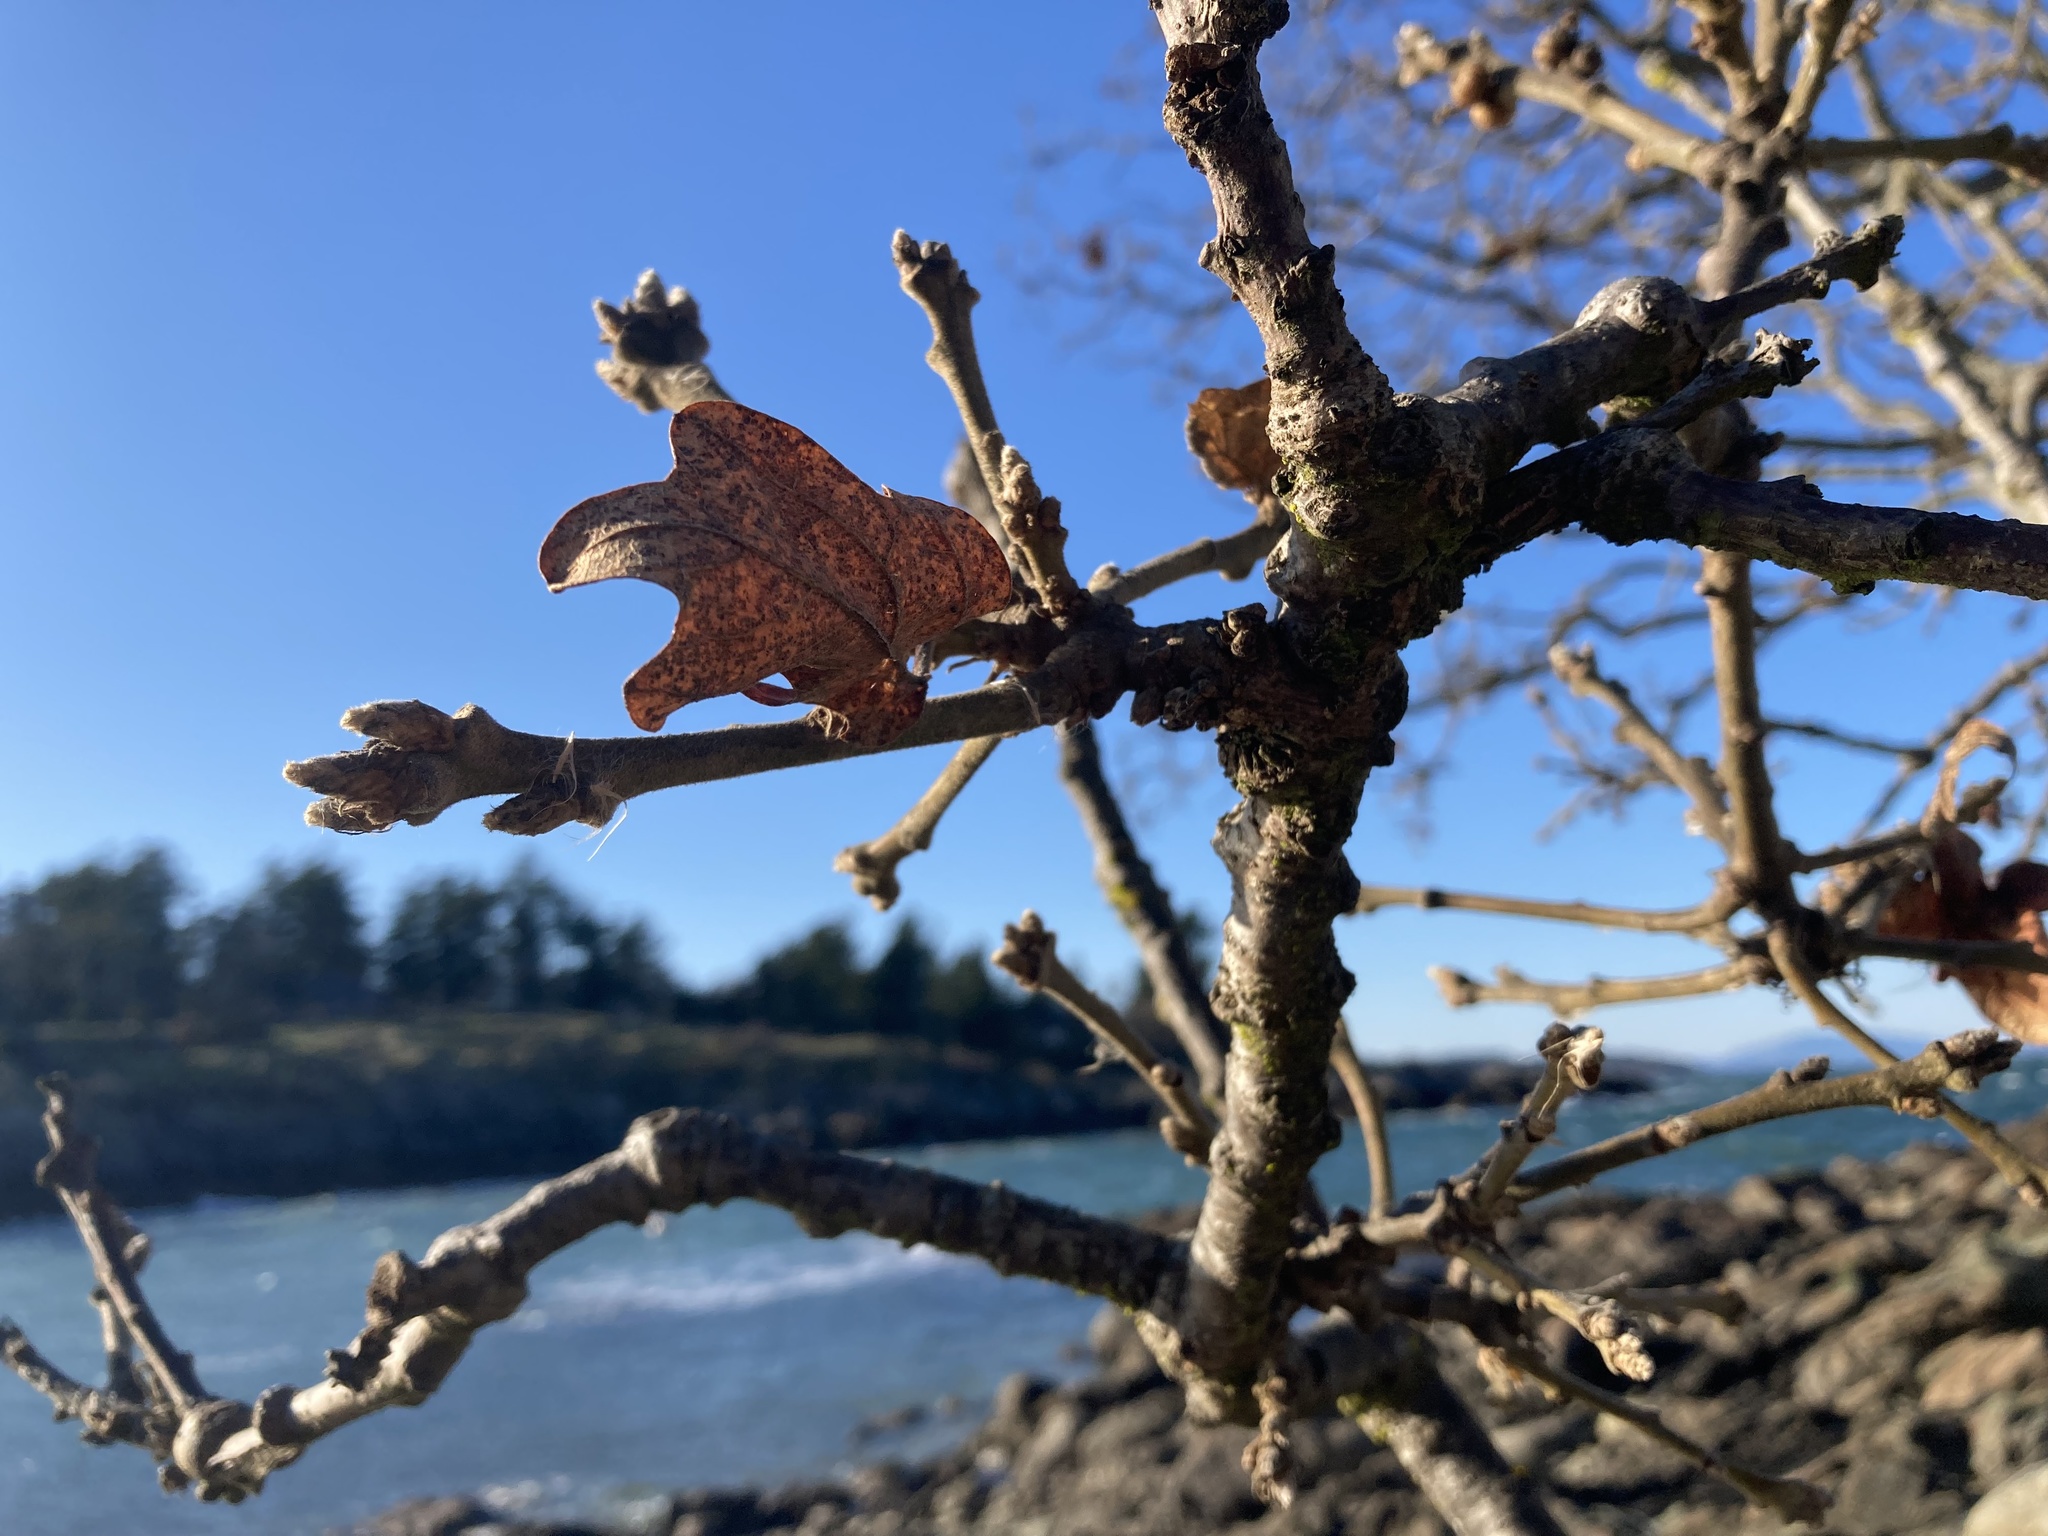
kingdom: Plantae
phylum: Tracheophyta
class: Magnoliopsida
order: Fagales
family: Fagaceae
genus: Quercus
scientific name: Quercus garryana
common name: Garry oak
